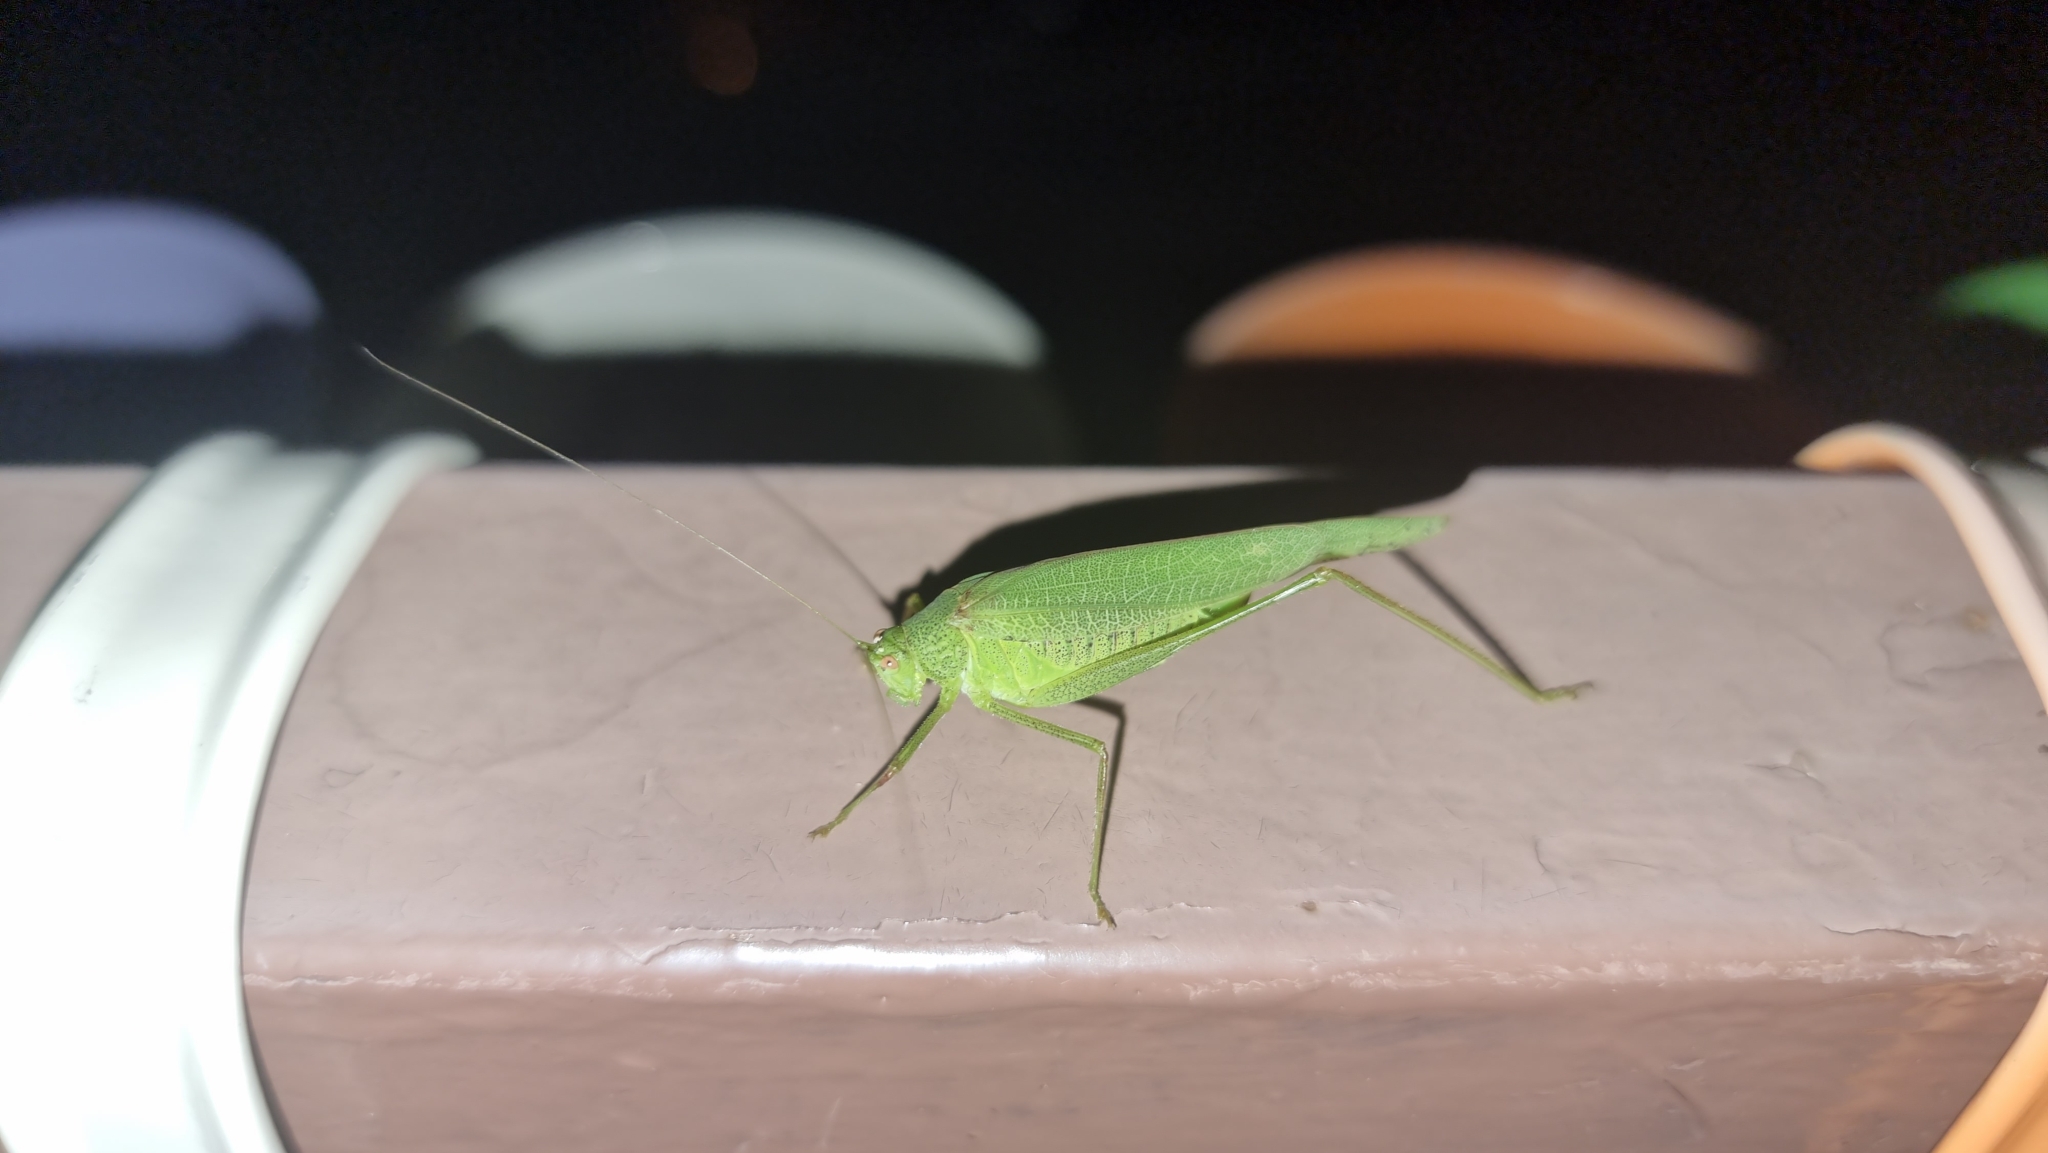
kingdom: Animalia
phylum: Arthropoda
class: Insecta
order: Orthoptera
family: Tettigoniidae
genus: Phaneroptera
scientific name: Phaneroptera nana
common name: Southern sickle bush-cricket
